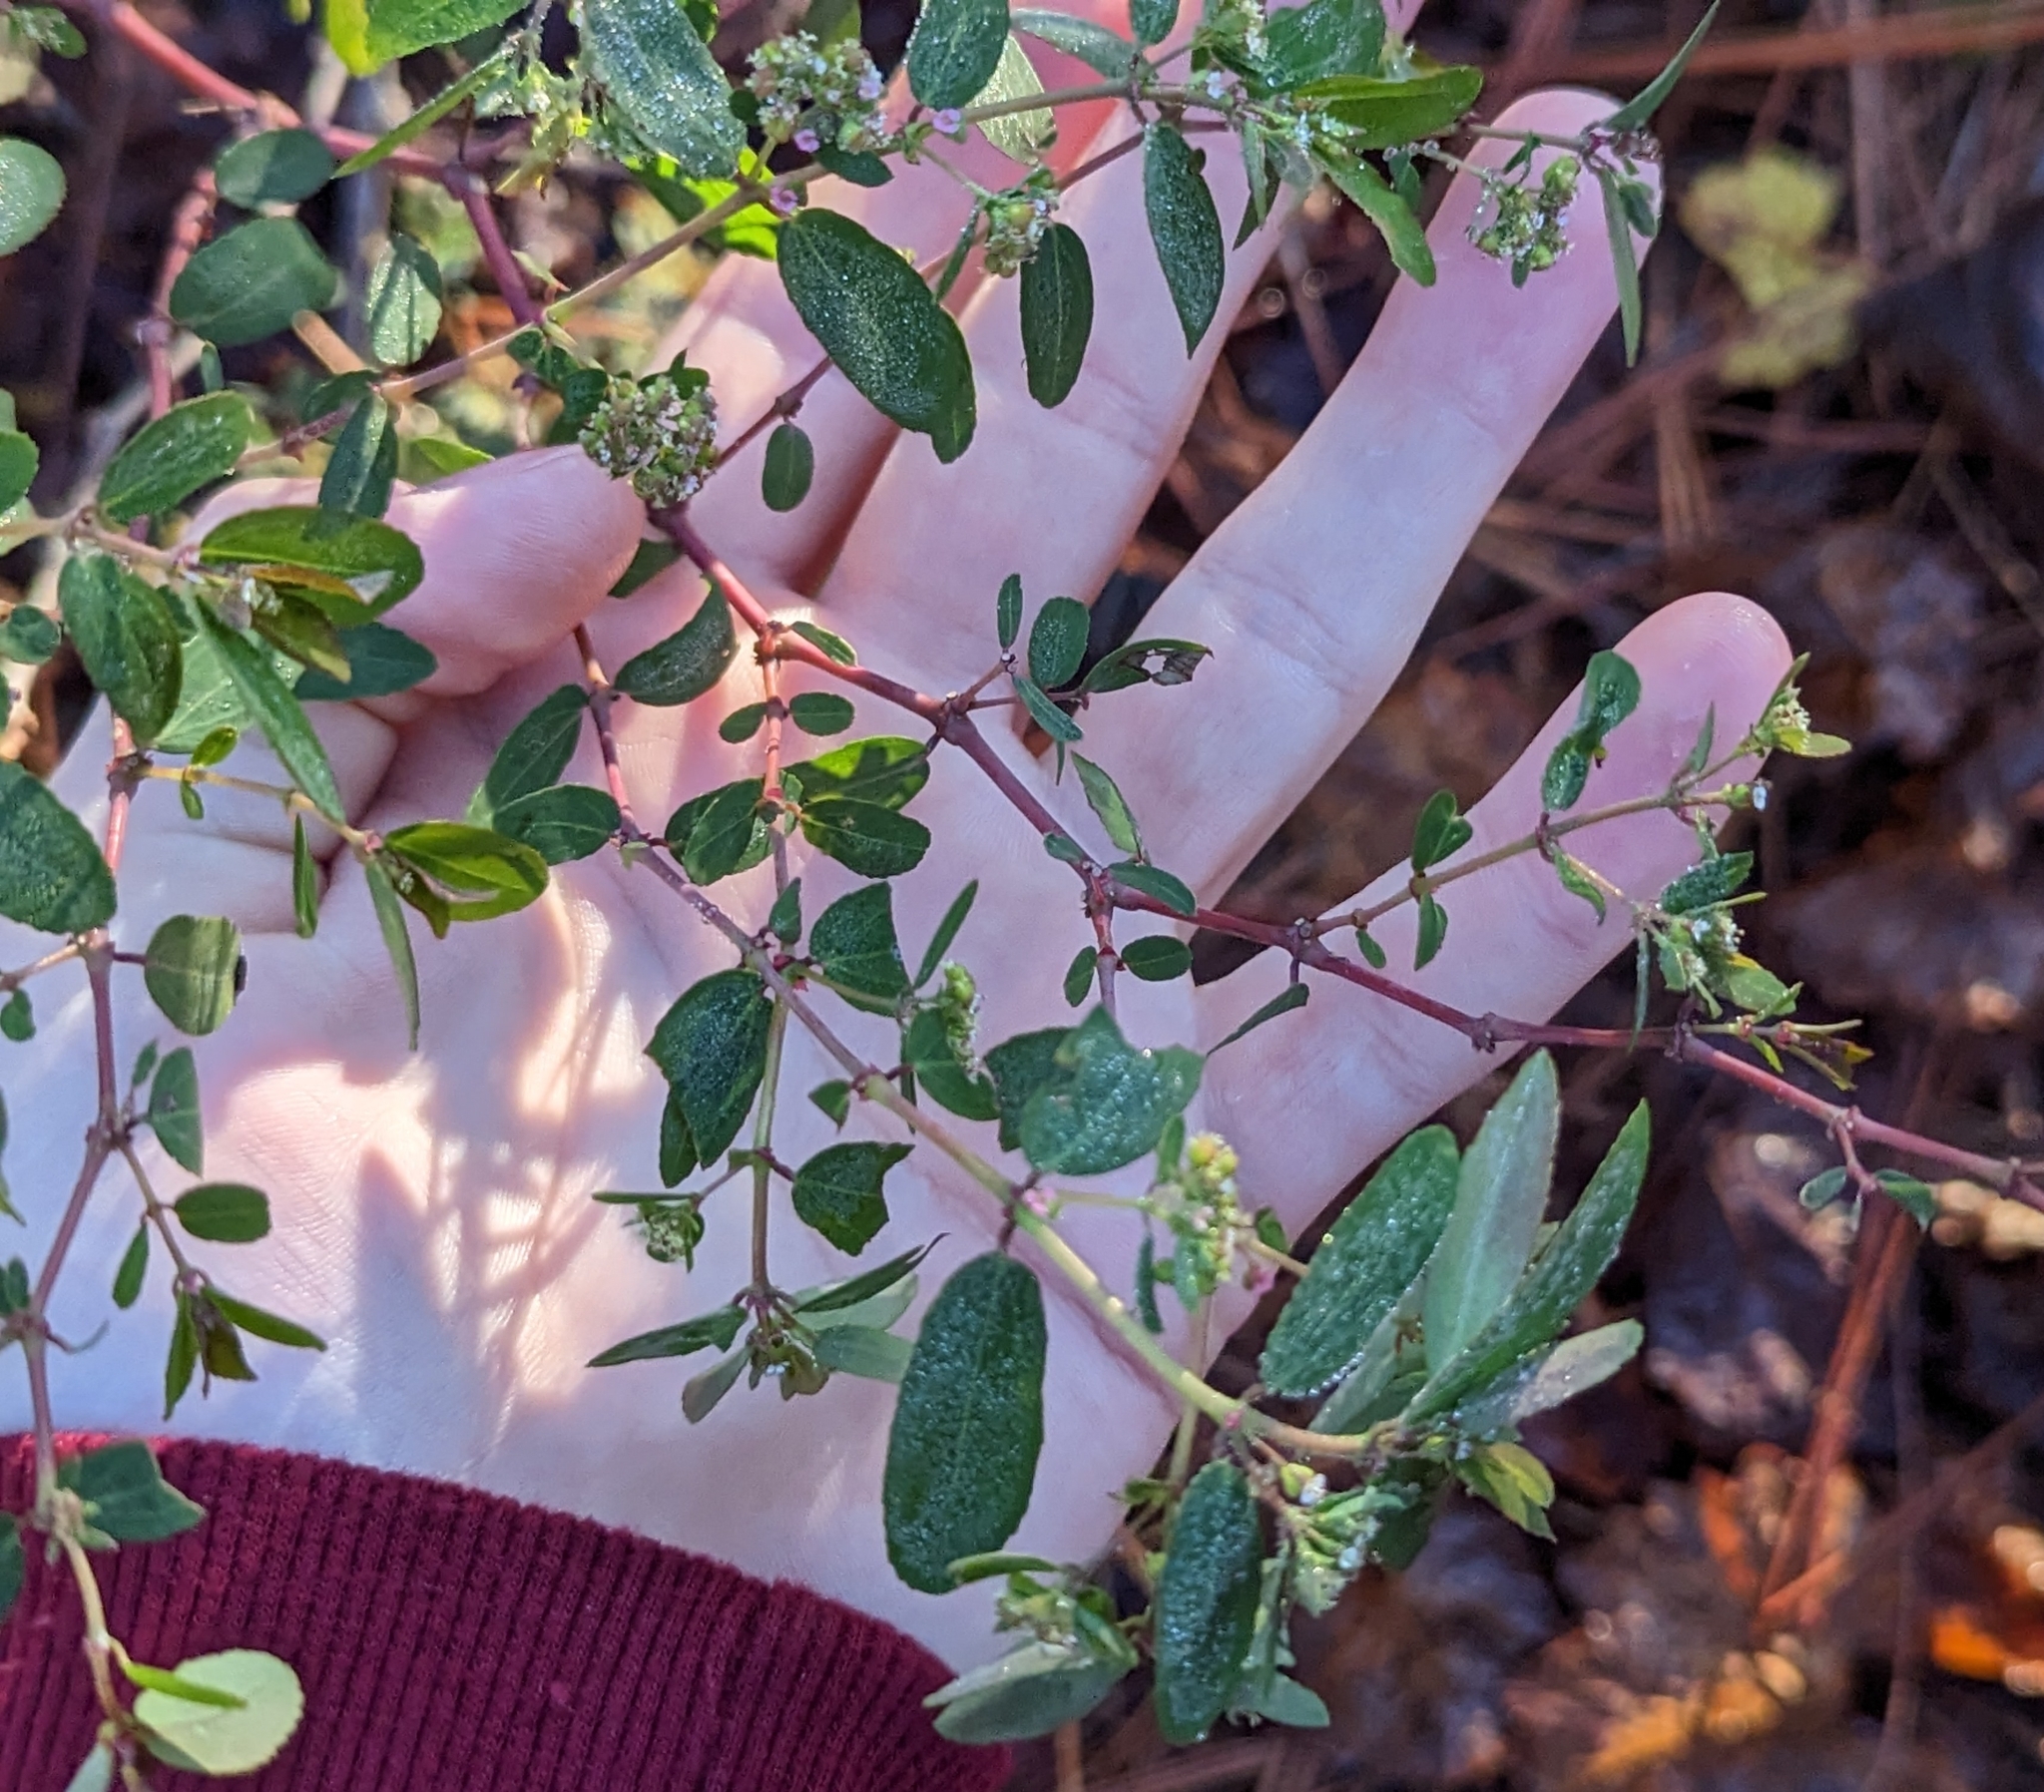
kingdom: Plantae
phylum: Tracheophyta
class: Magnoliopsida
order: Malpighiales
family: Euphorbiaceae
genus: Euphorbia
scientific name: Euphorbia hypericifolia
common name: Graceful sandmat
